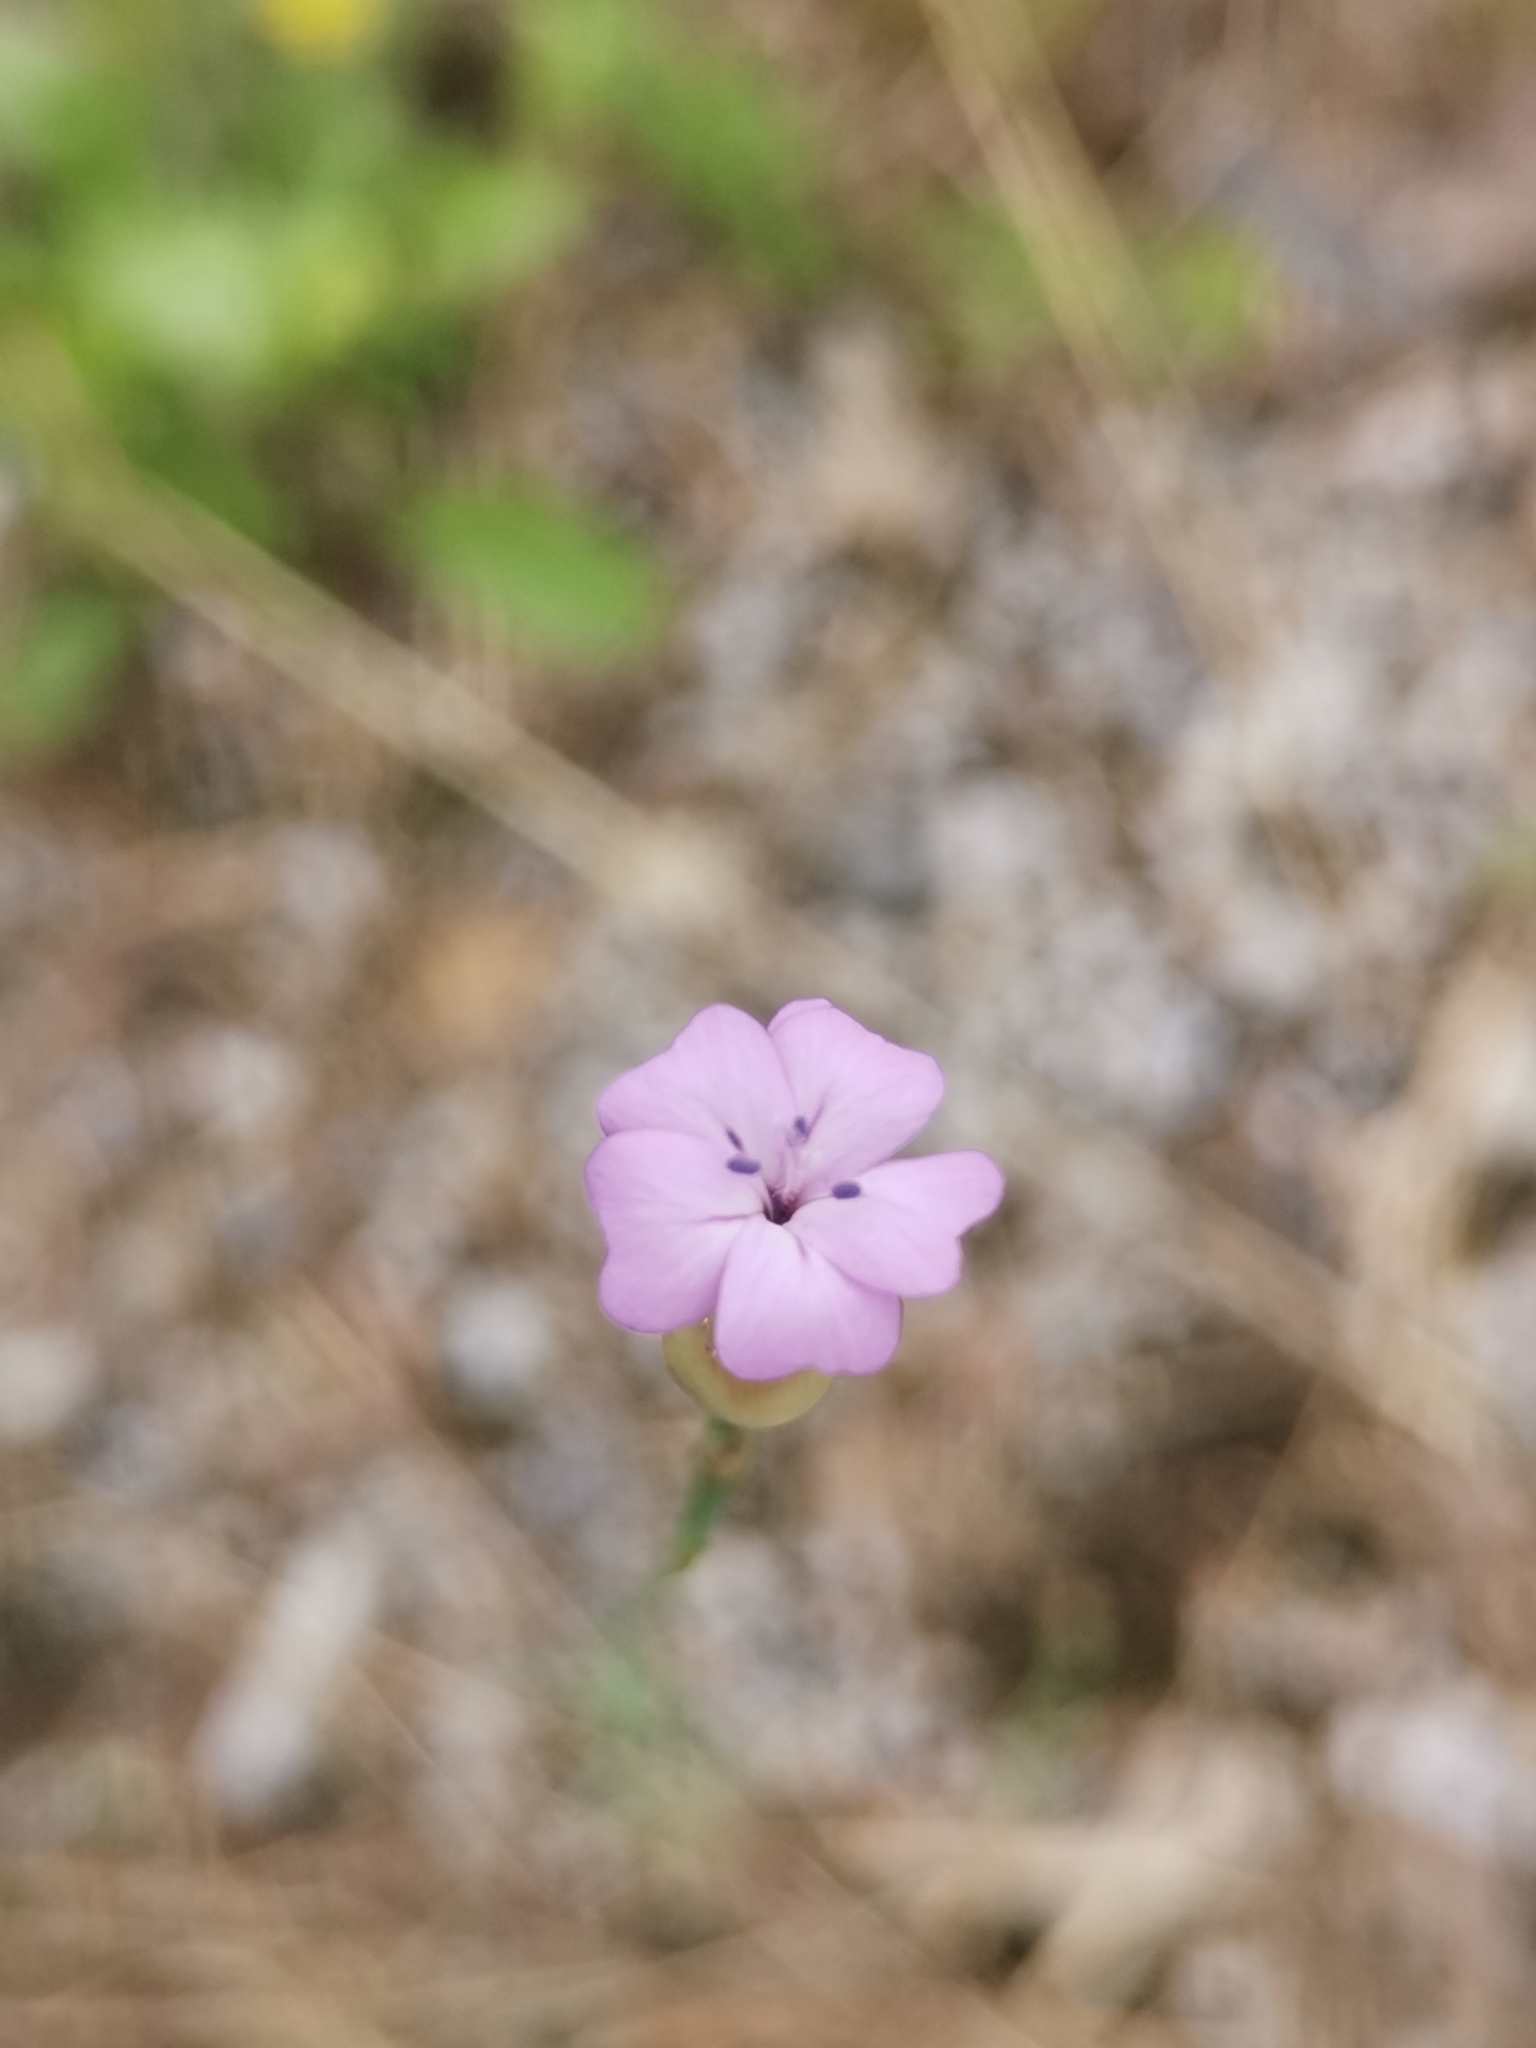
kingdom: Plantae
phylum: Tracheophyta
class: Magnoliopsida
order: Caryophyllales
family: Caryophyllaceae
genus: Petrorhagia
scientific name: Petrorhagia prolifera
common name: Proliferous pink
